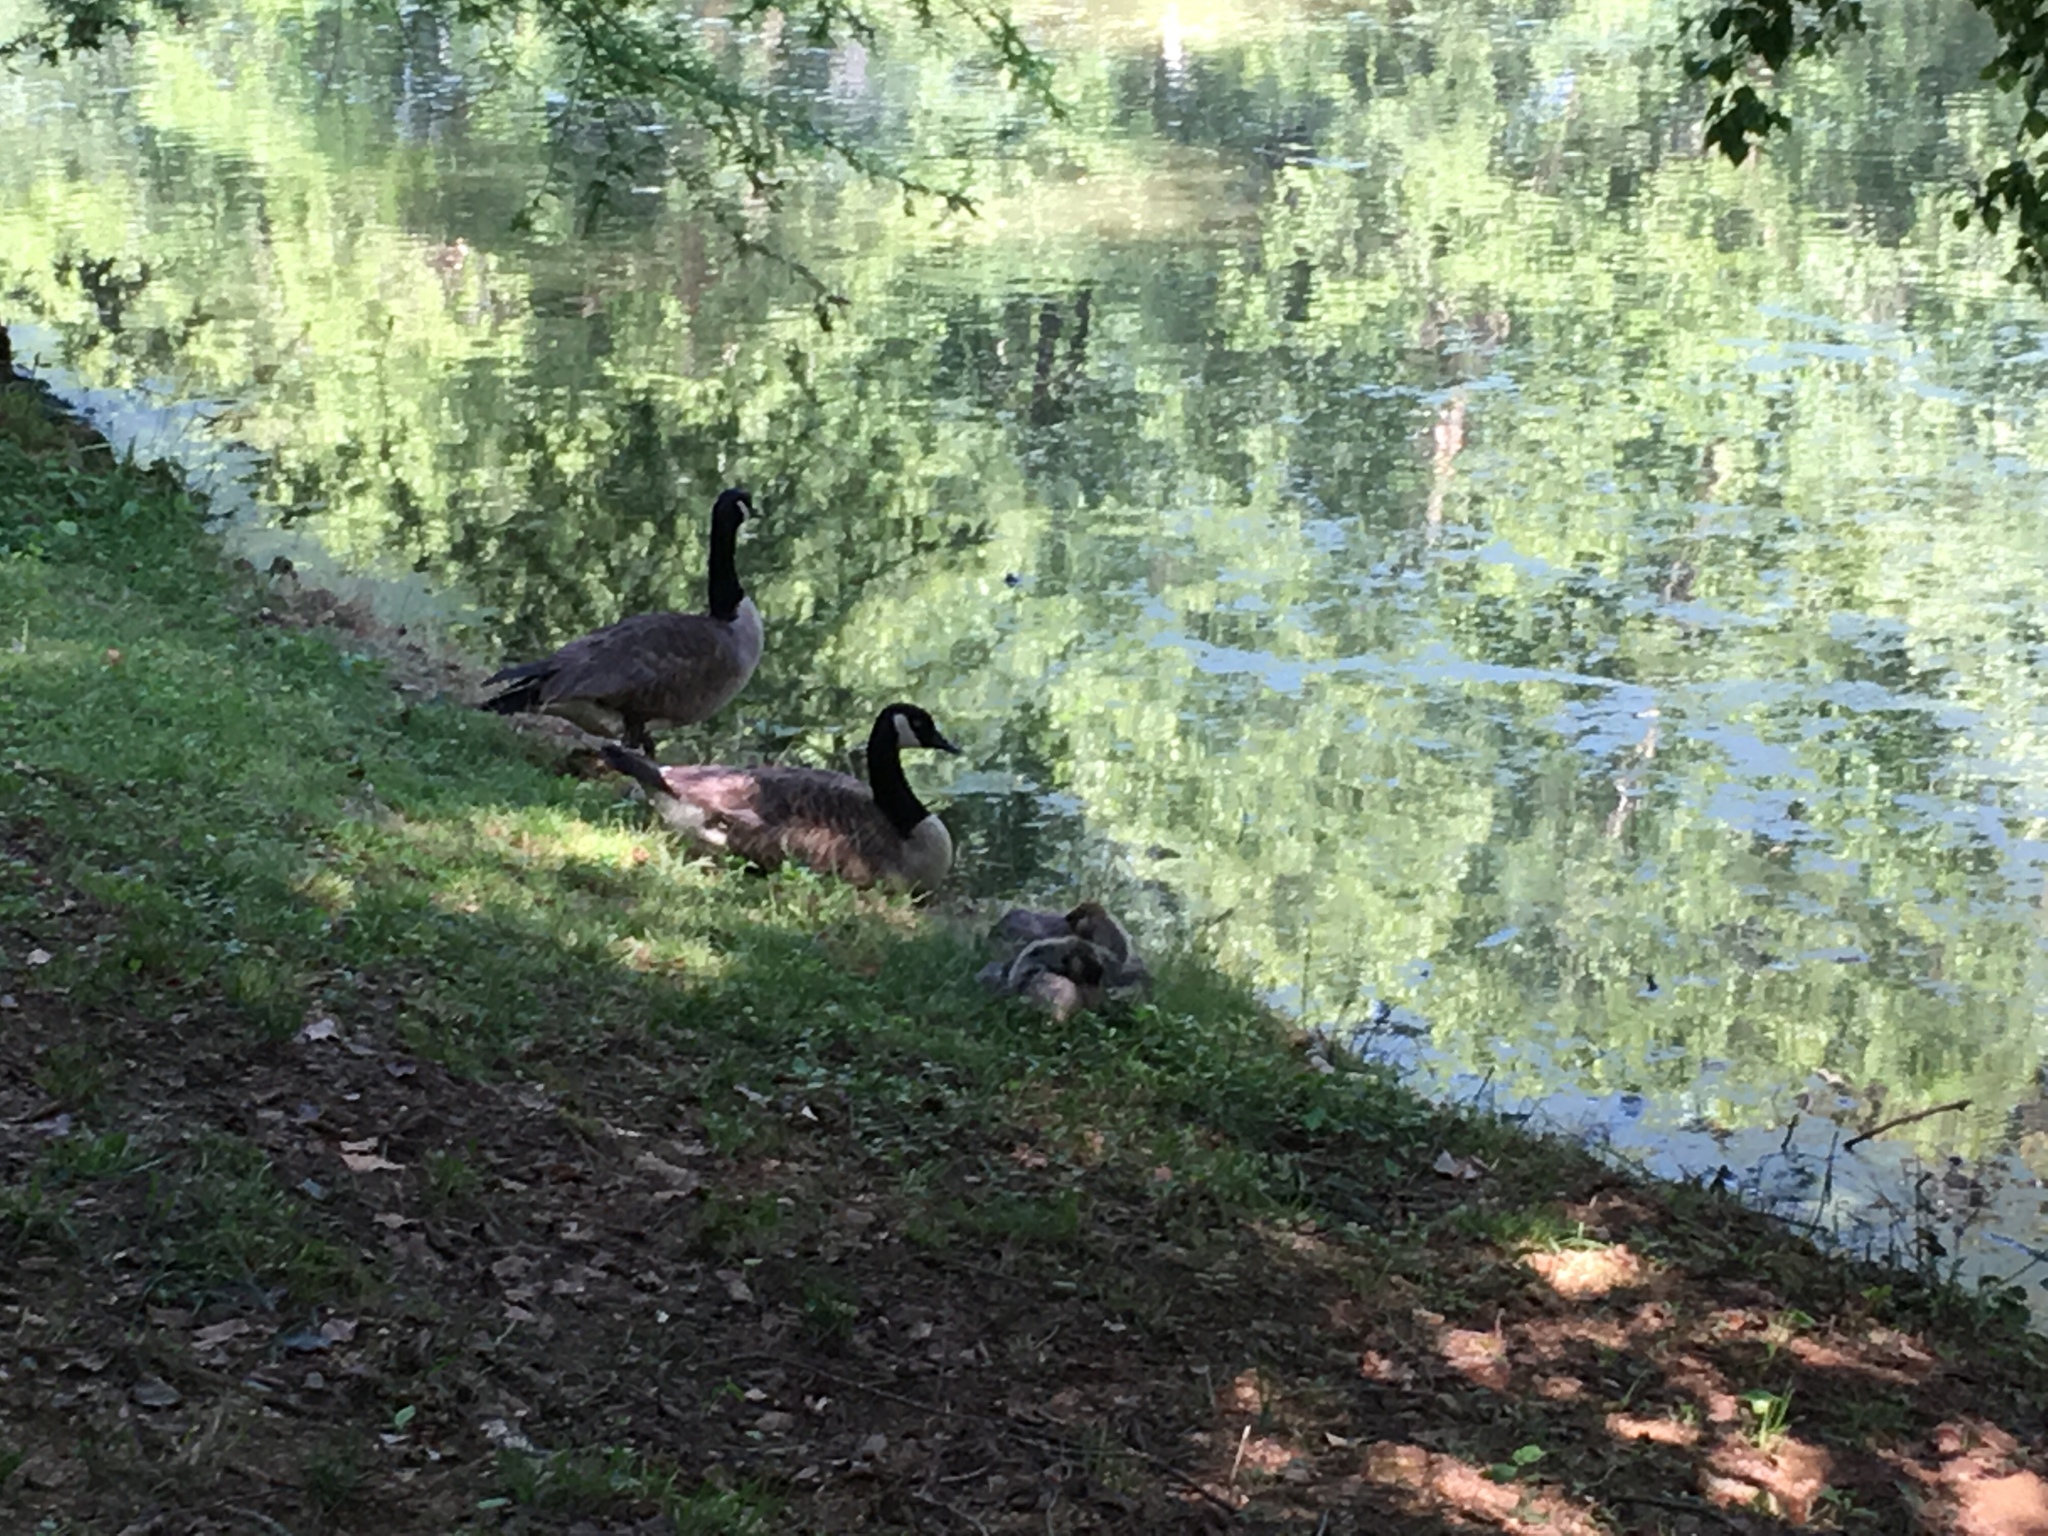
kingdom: Animalia
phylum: Chordata
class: Aves
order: Anseriformes
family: Anatidae
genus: Branta
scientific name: Branta canadensis
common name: Canada goose
